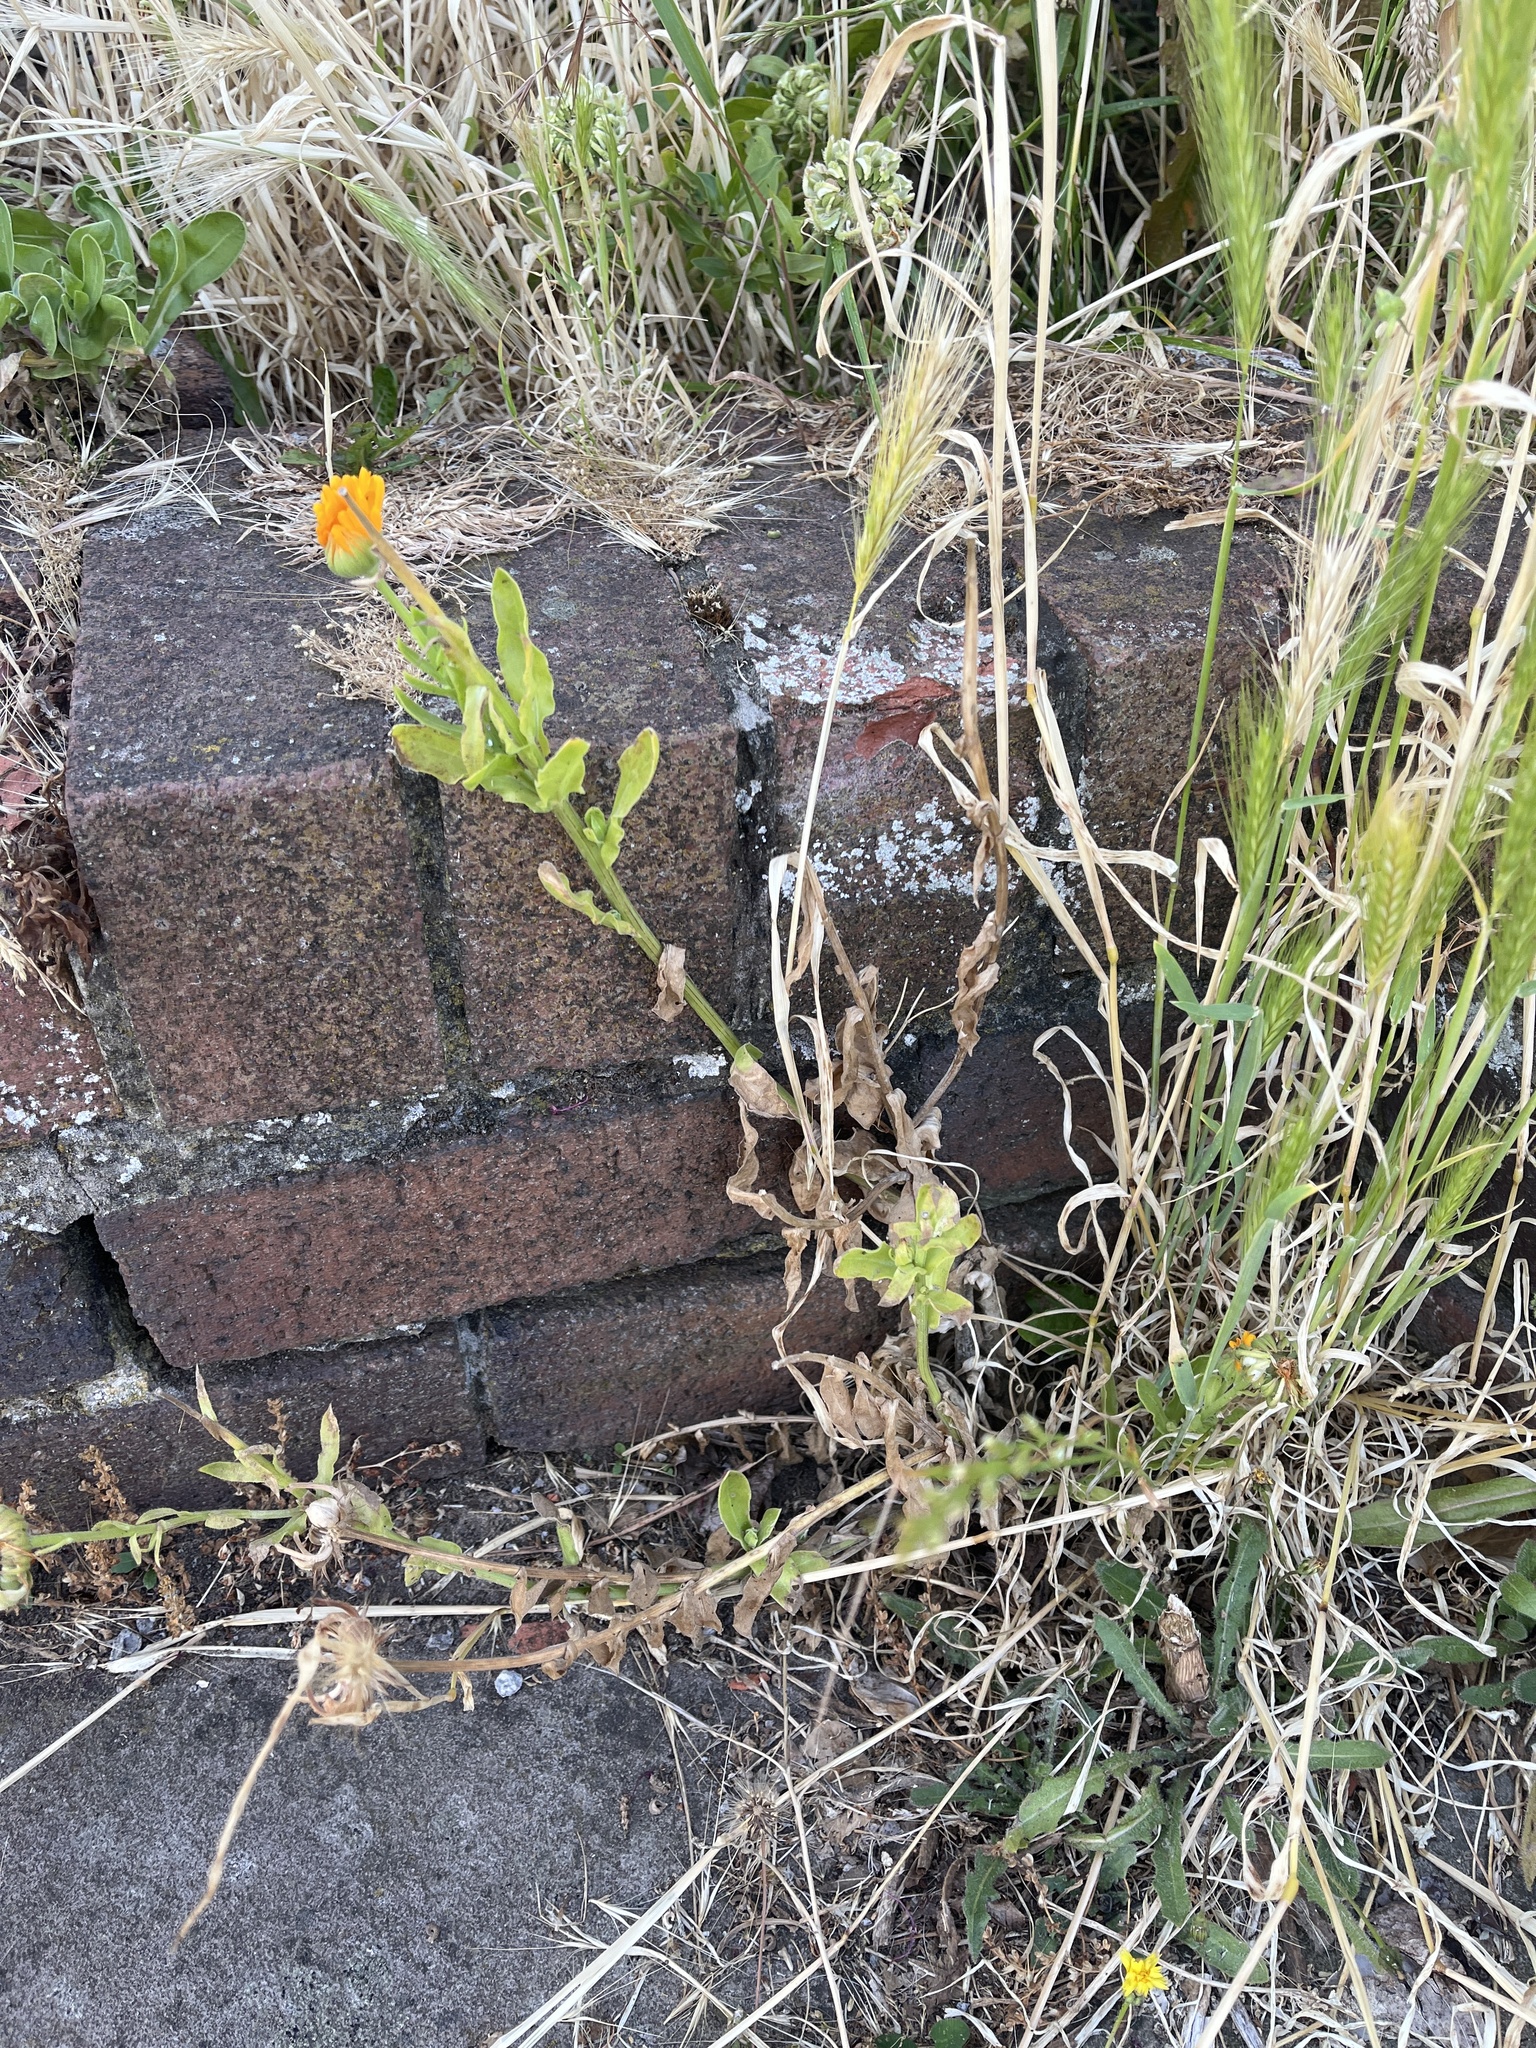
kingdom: Plantae
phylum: Tracheophyta
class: Magnoliopsida
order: Asterales
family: Asteraceae
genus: Calendula
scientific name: Calendula officinalis
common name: Pot marigold
